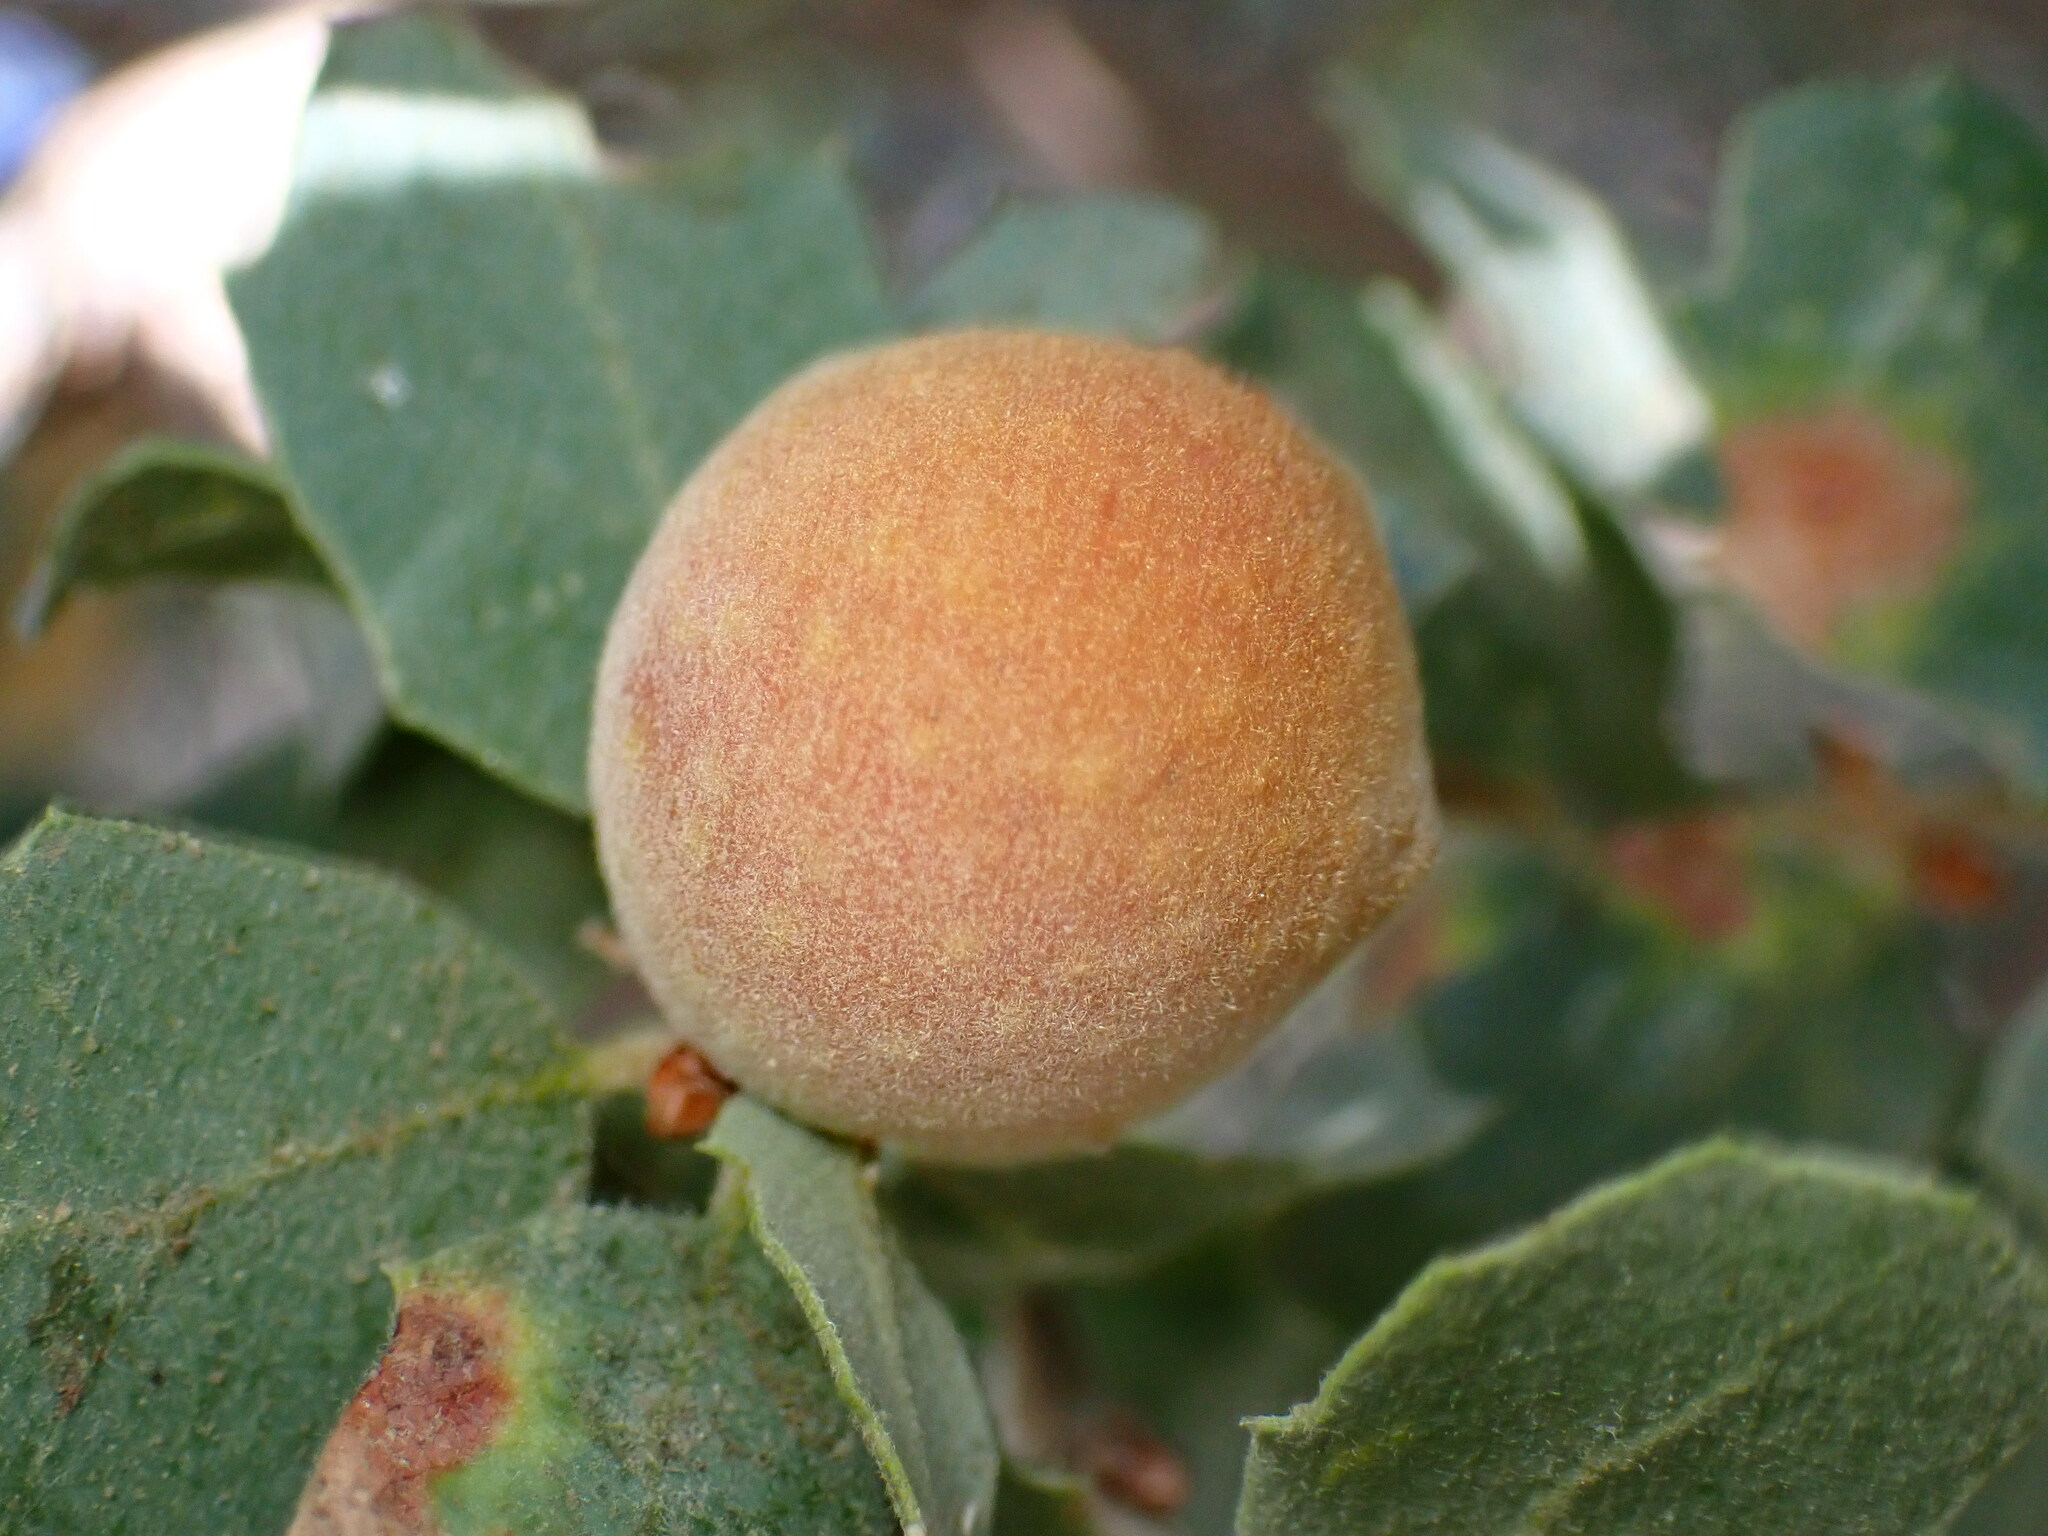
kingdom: Animalia
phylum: Arthropoda
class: Insecta
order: Hymenoptera
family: Cynipidae
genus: Burnettweldia
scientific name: Burnettweldia
